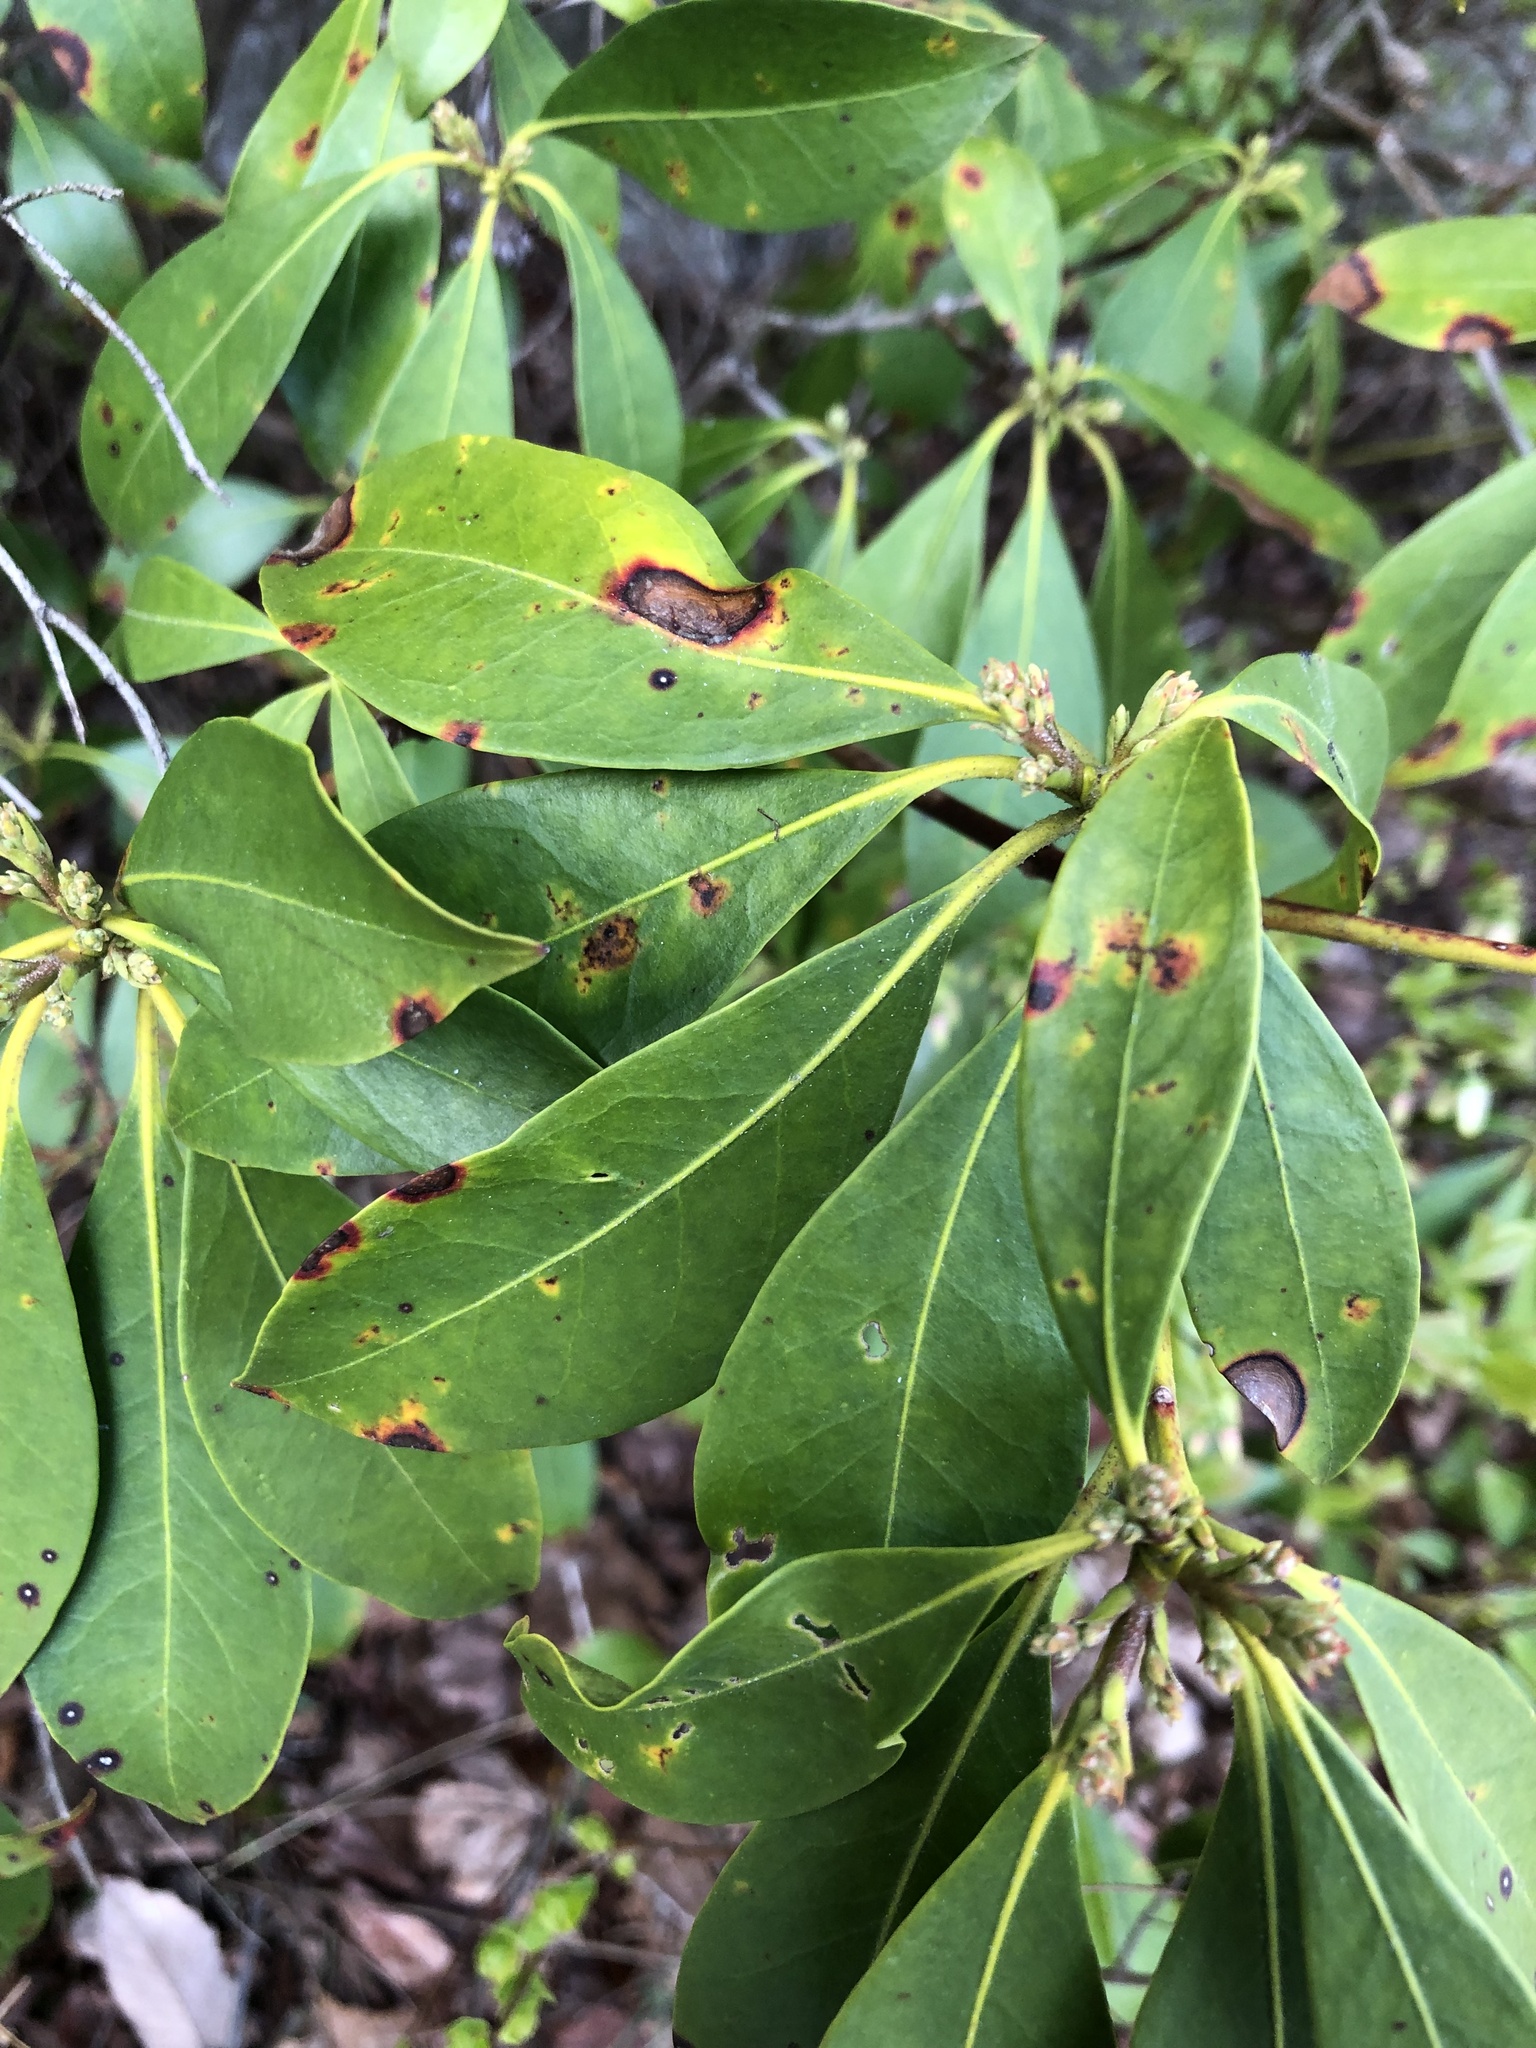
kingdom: Plantae
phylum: Tracheophyta
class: Magnoliopsida
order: Ericales
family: Ericaceae
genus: Kalmia
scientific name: Kalmia latifolia
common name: Mountain-laurel
